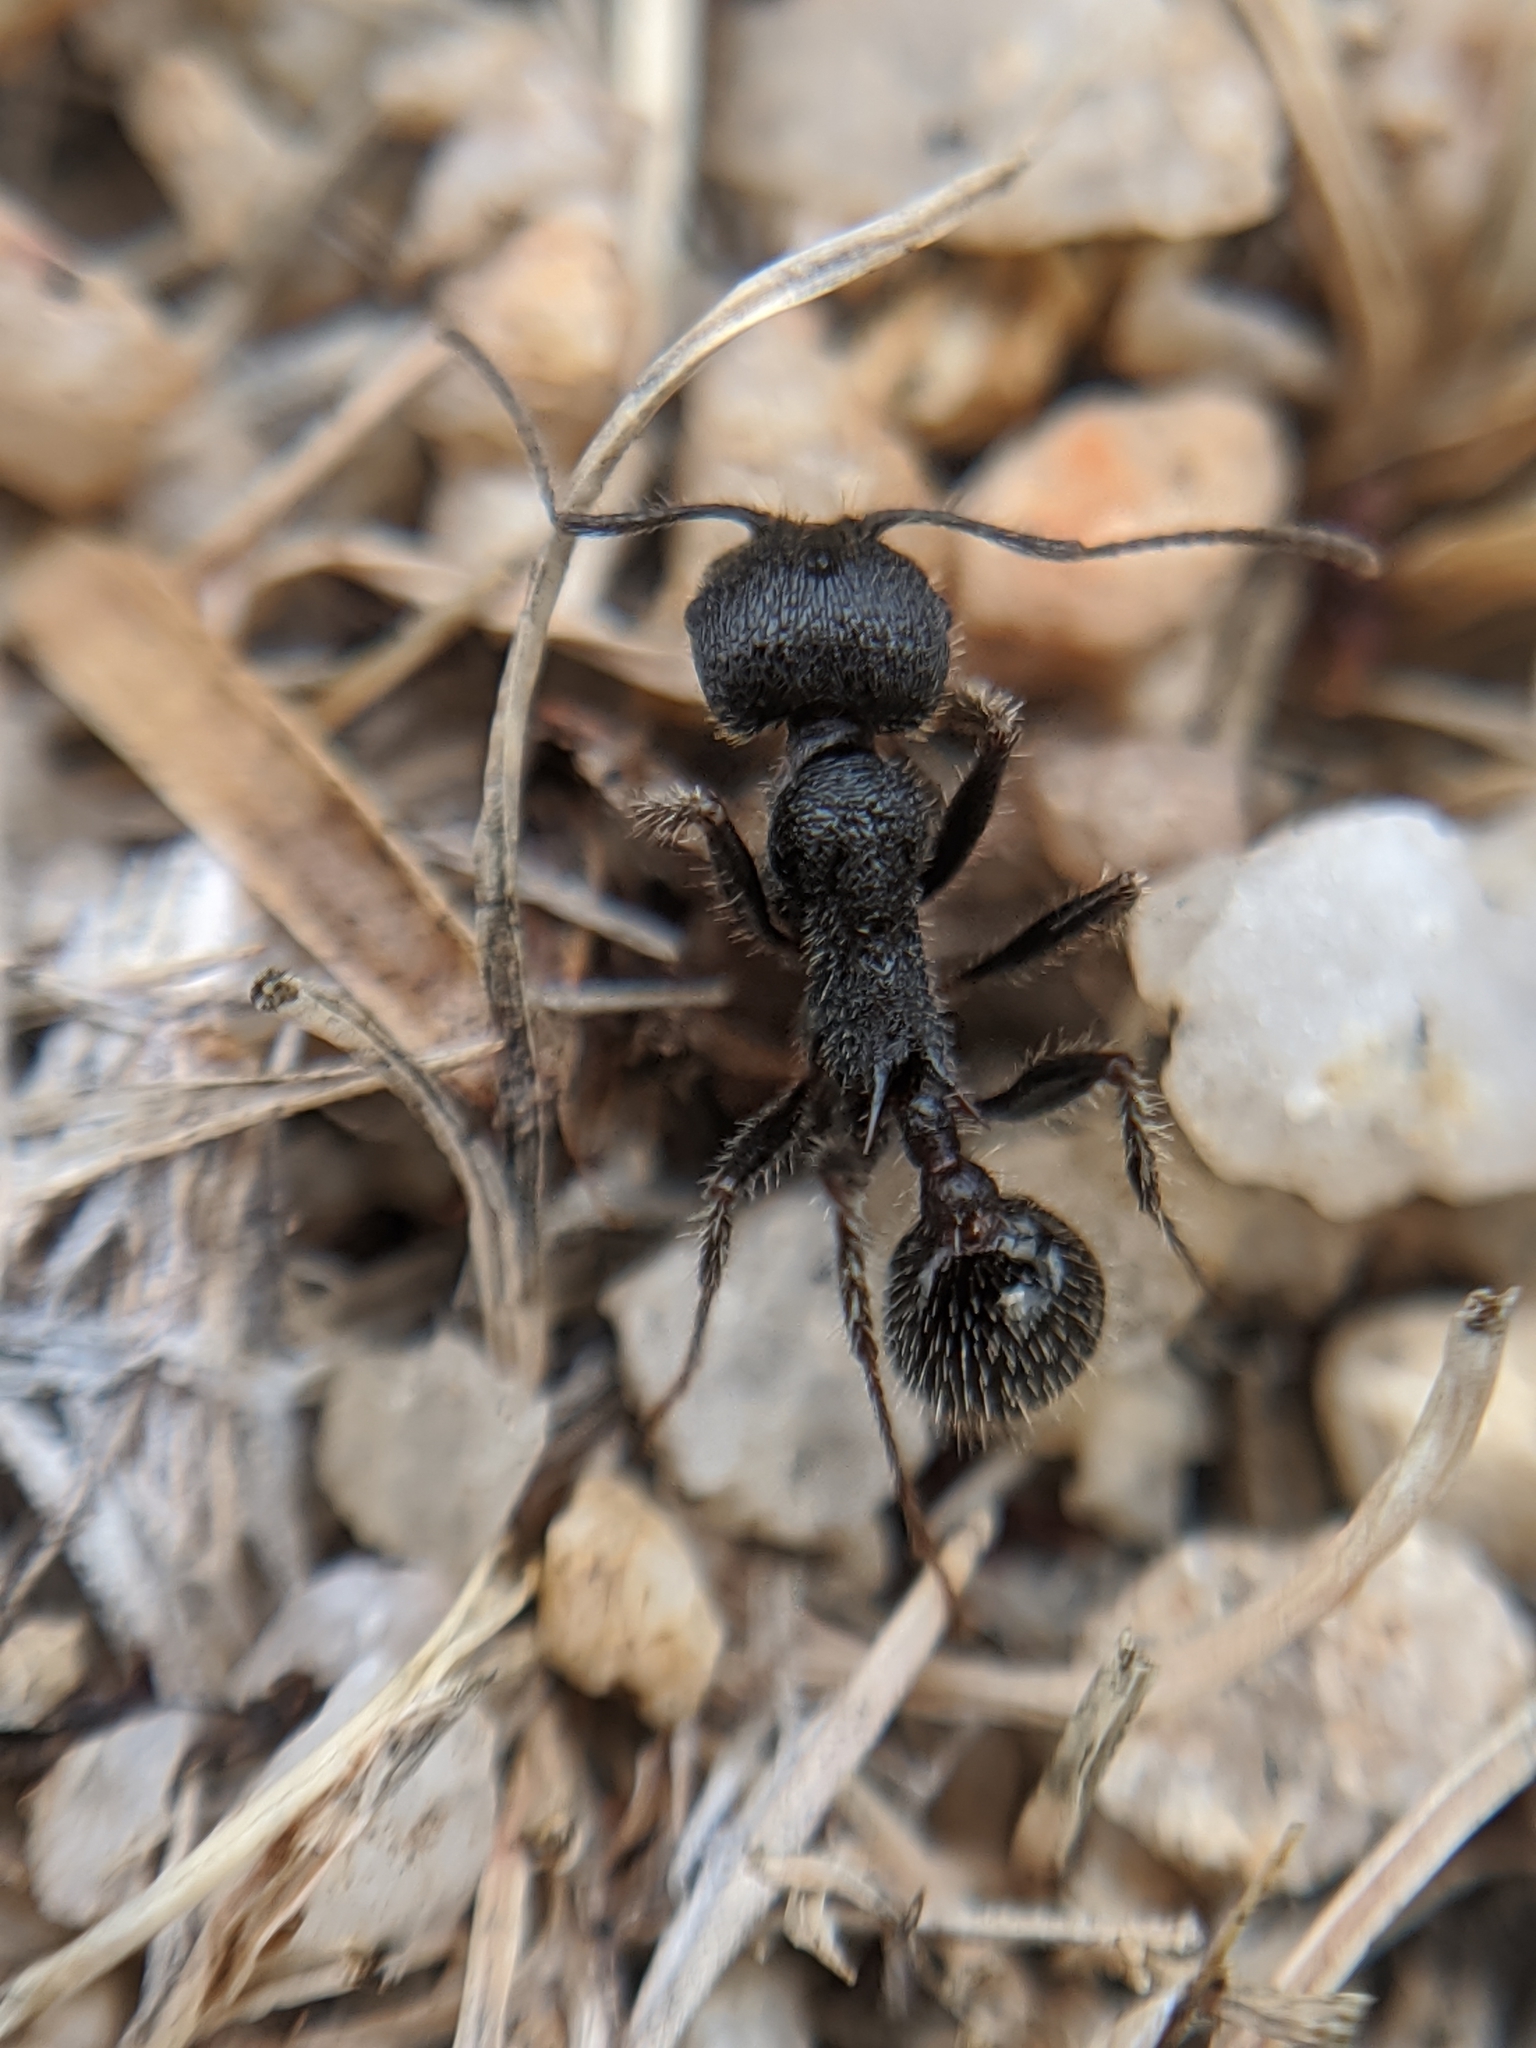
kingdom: Animalia
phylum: Arthropoda
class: Insecta
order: Hymenoptera
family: Formicidae
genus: Veromessor
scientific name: Veromessor andrei
